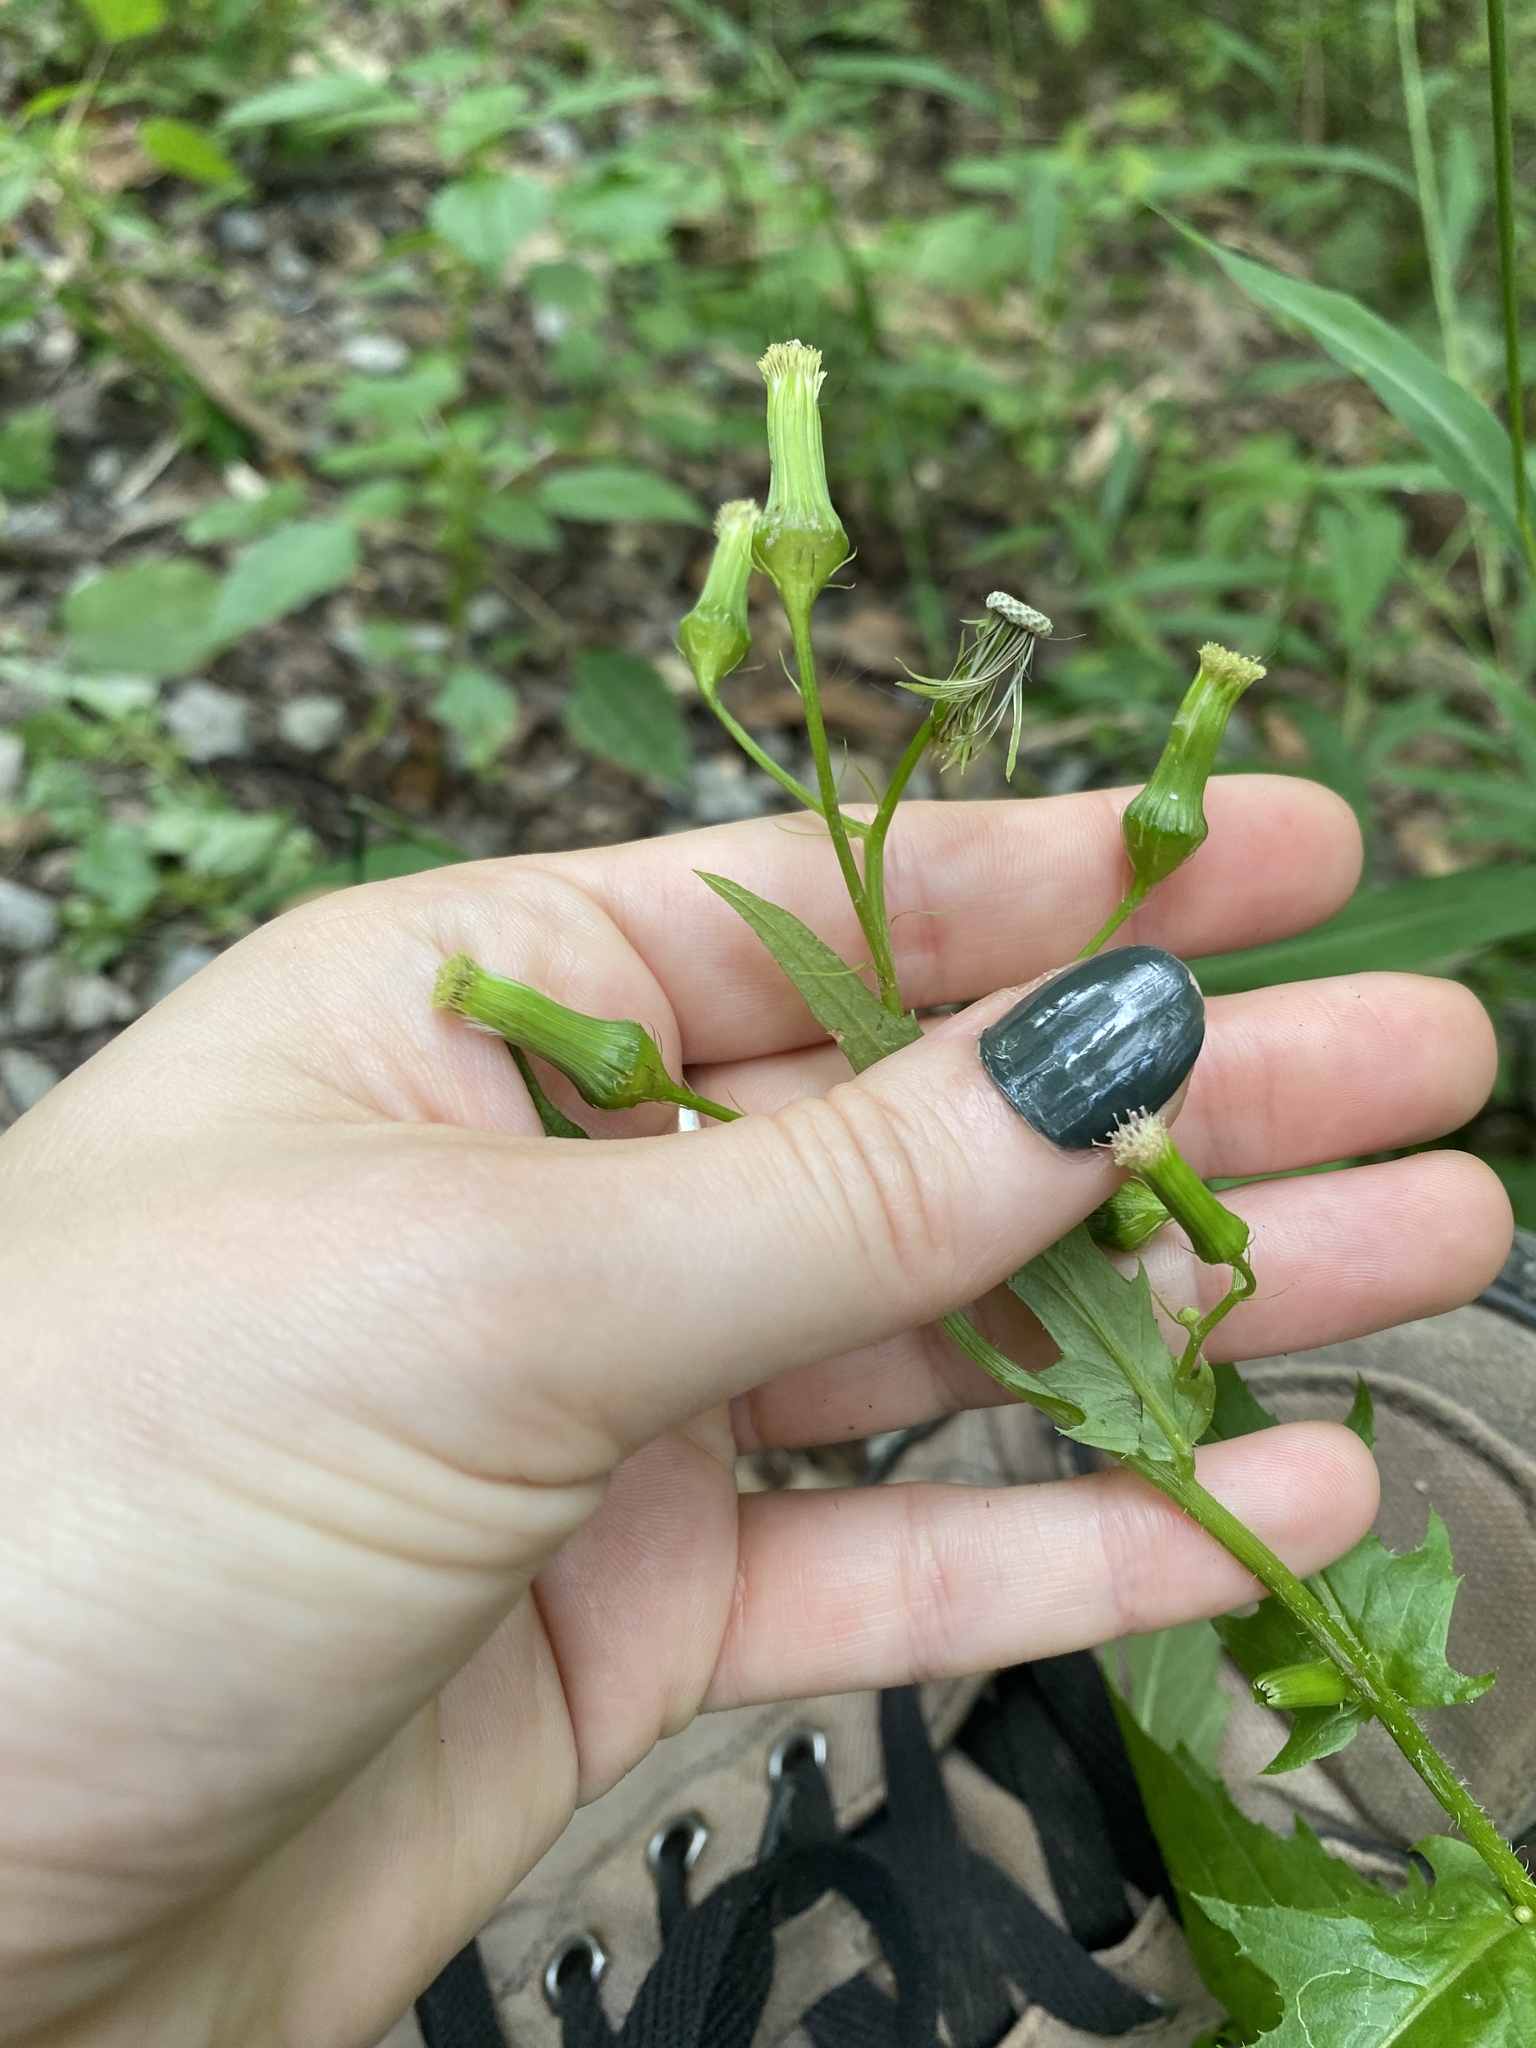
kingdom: Plantae
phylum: Tracheophyta
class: Magnoliopsida
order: Asterales
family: Asteraceae
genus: Erechtites
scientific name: Erechtites hieraciifolius
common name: American burnweed
